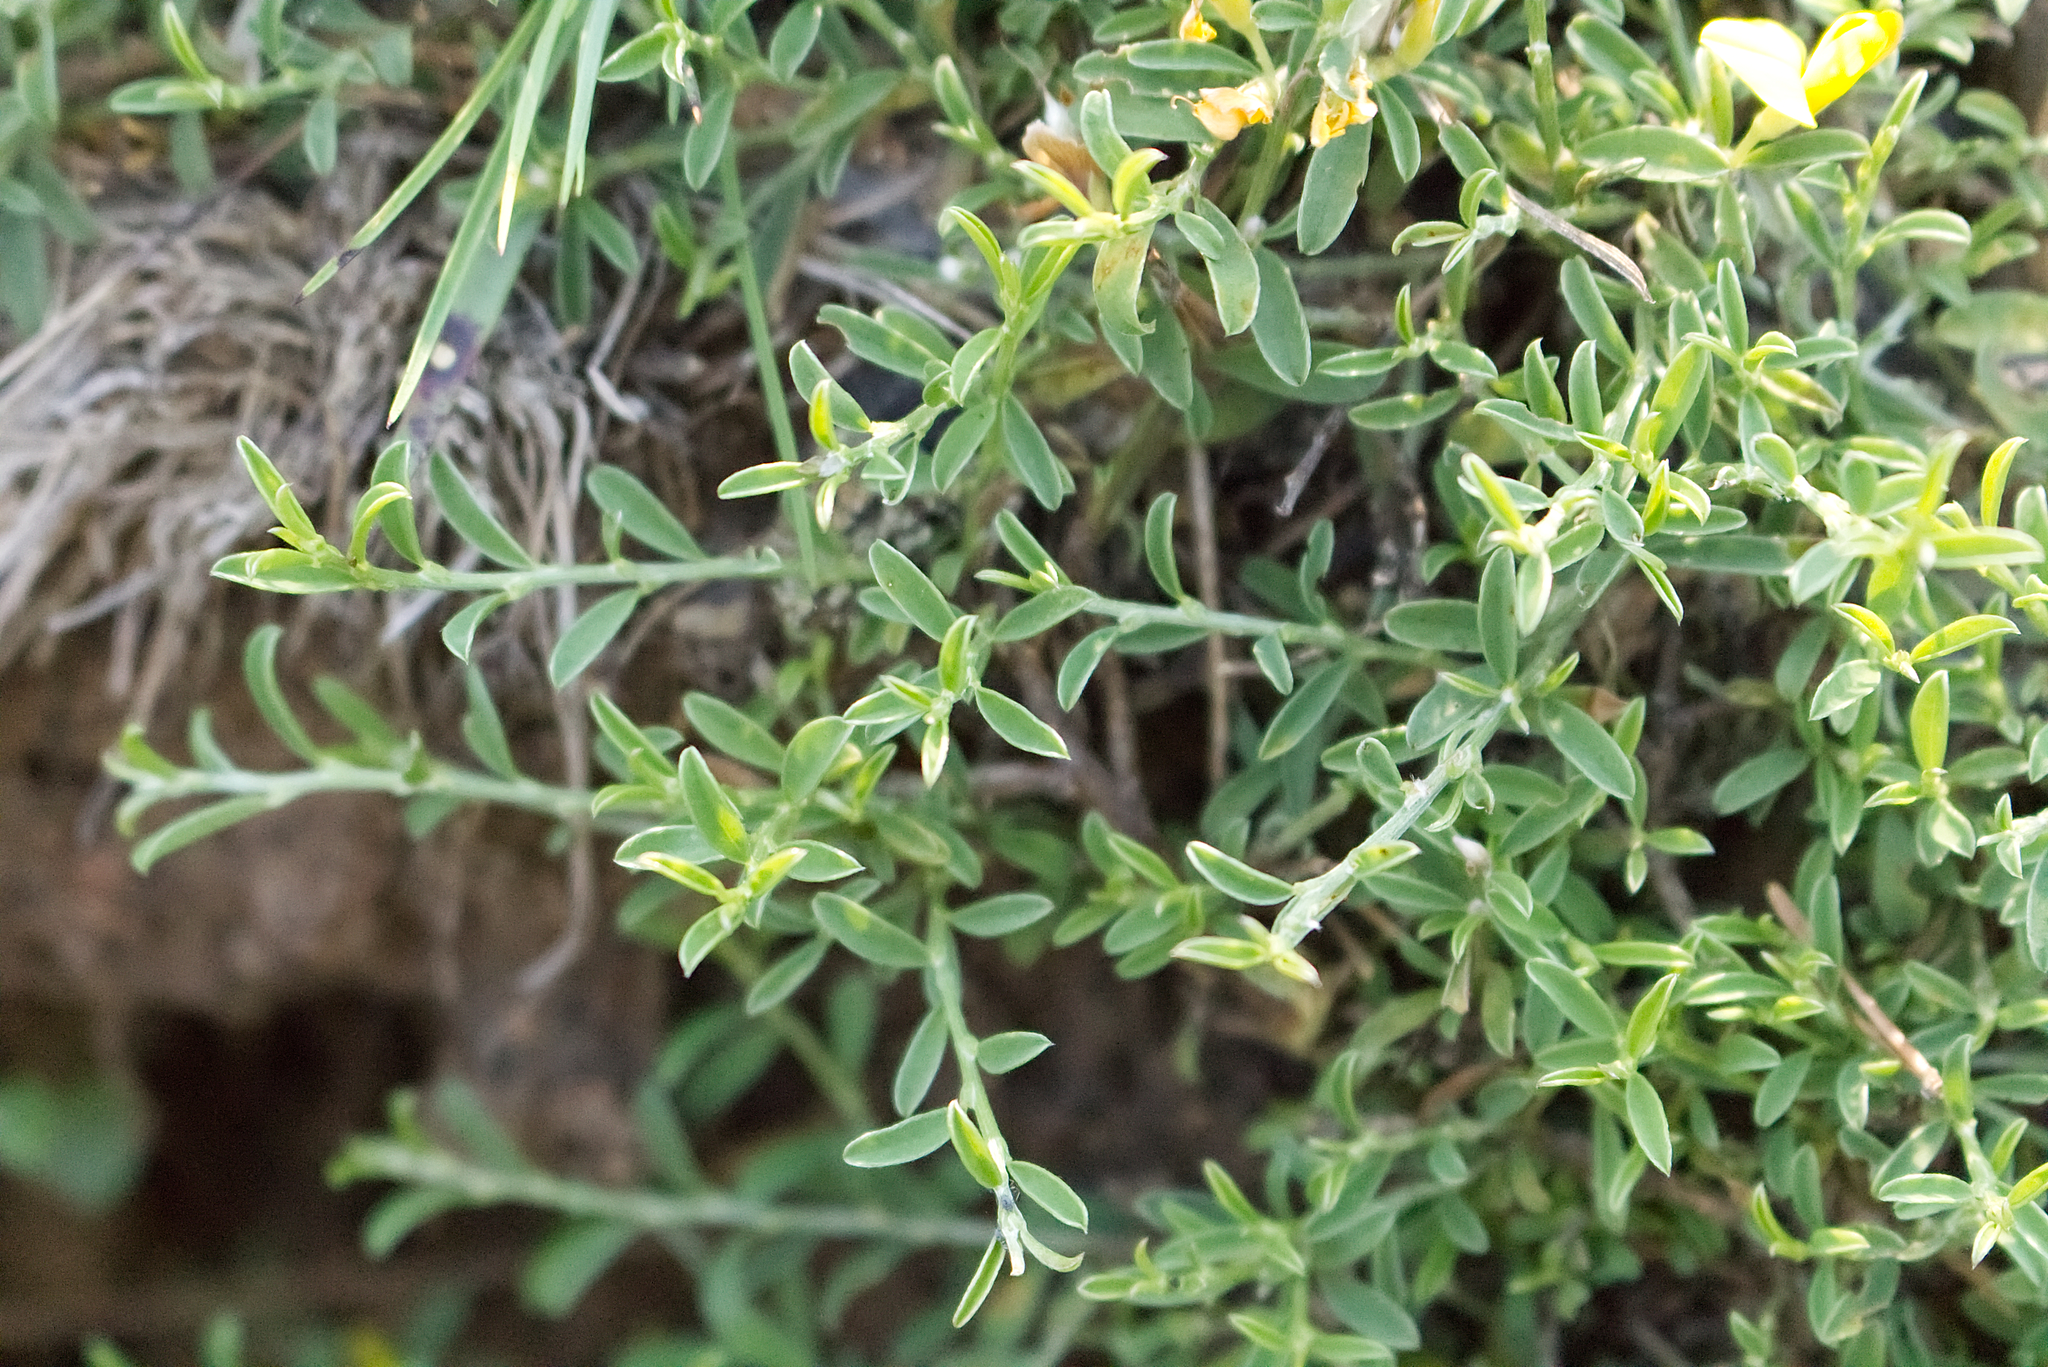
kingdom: Plantae
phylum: Tracheophyta
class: Magnoliopsida
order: Fabales
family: Fabaceae
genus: Genista
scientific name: Genista pilosa
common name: Hairy greenweed
